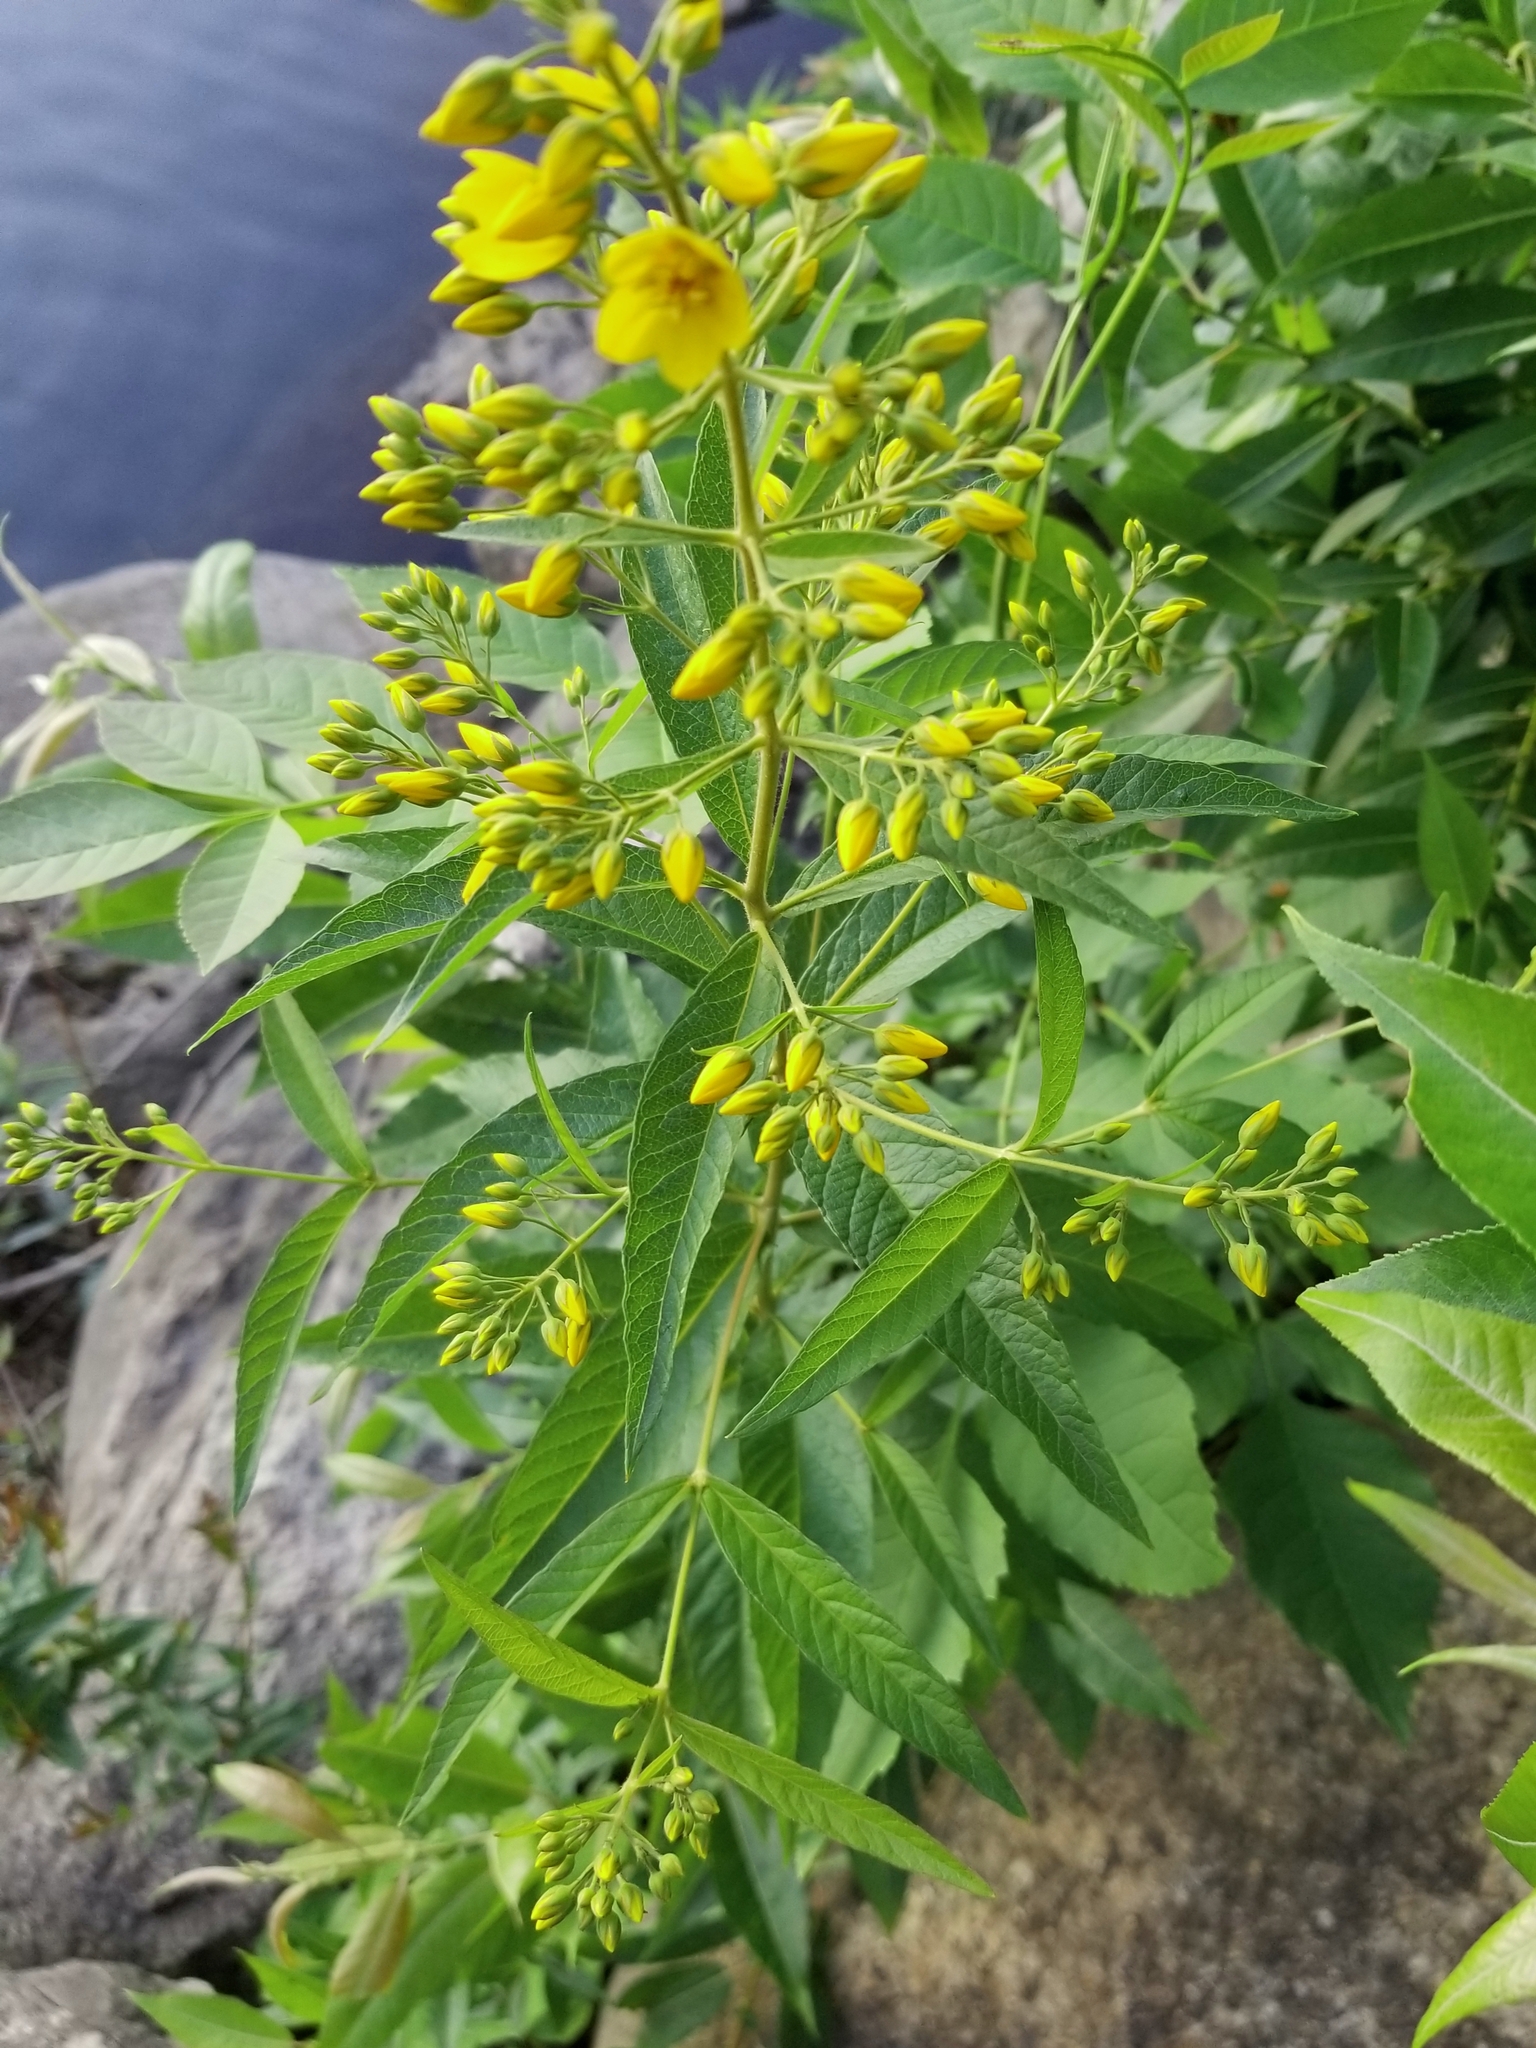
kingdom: Plantae
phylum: Tracheophyta
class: Magnoliopsida
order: Ericales
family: Primulaceae
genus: Lysimachia
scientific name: Lysimachia vulgaris
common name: Yellow loosestrife
